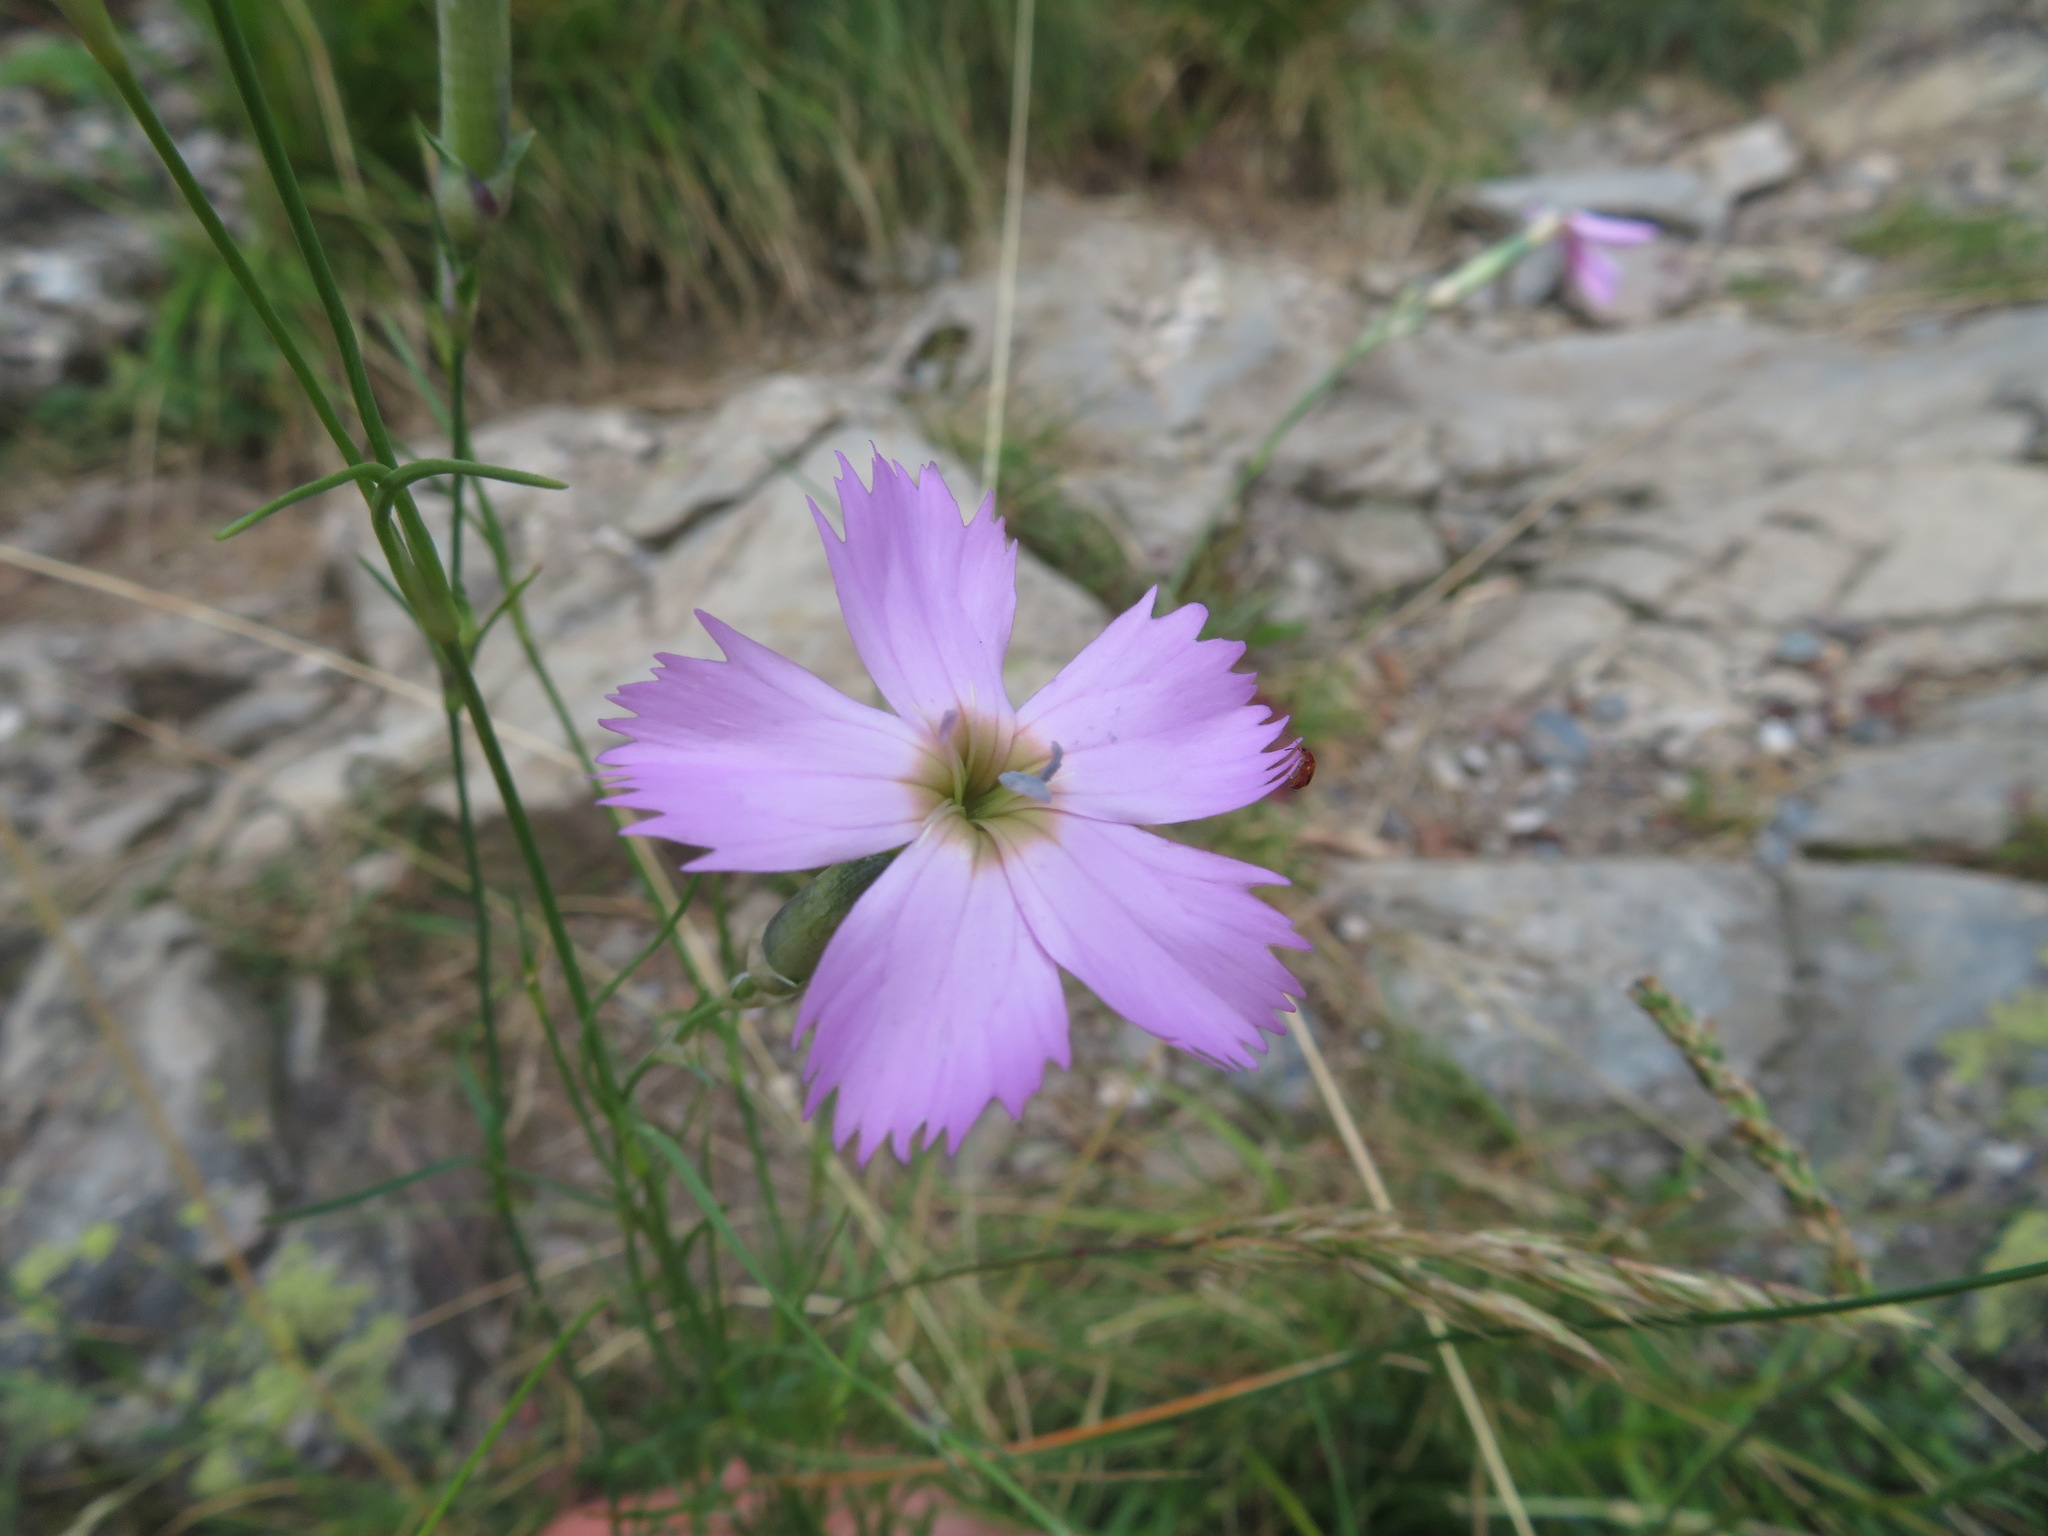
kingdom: Plantae
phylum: Tracheophyta
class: Magnoliopsida
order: Caryophyllales
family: Caryophyllaceae
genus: Dianthus
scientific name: Dianthus sylvestris
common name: Wood pink
